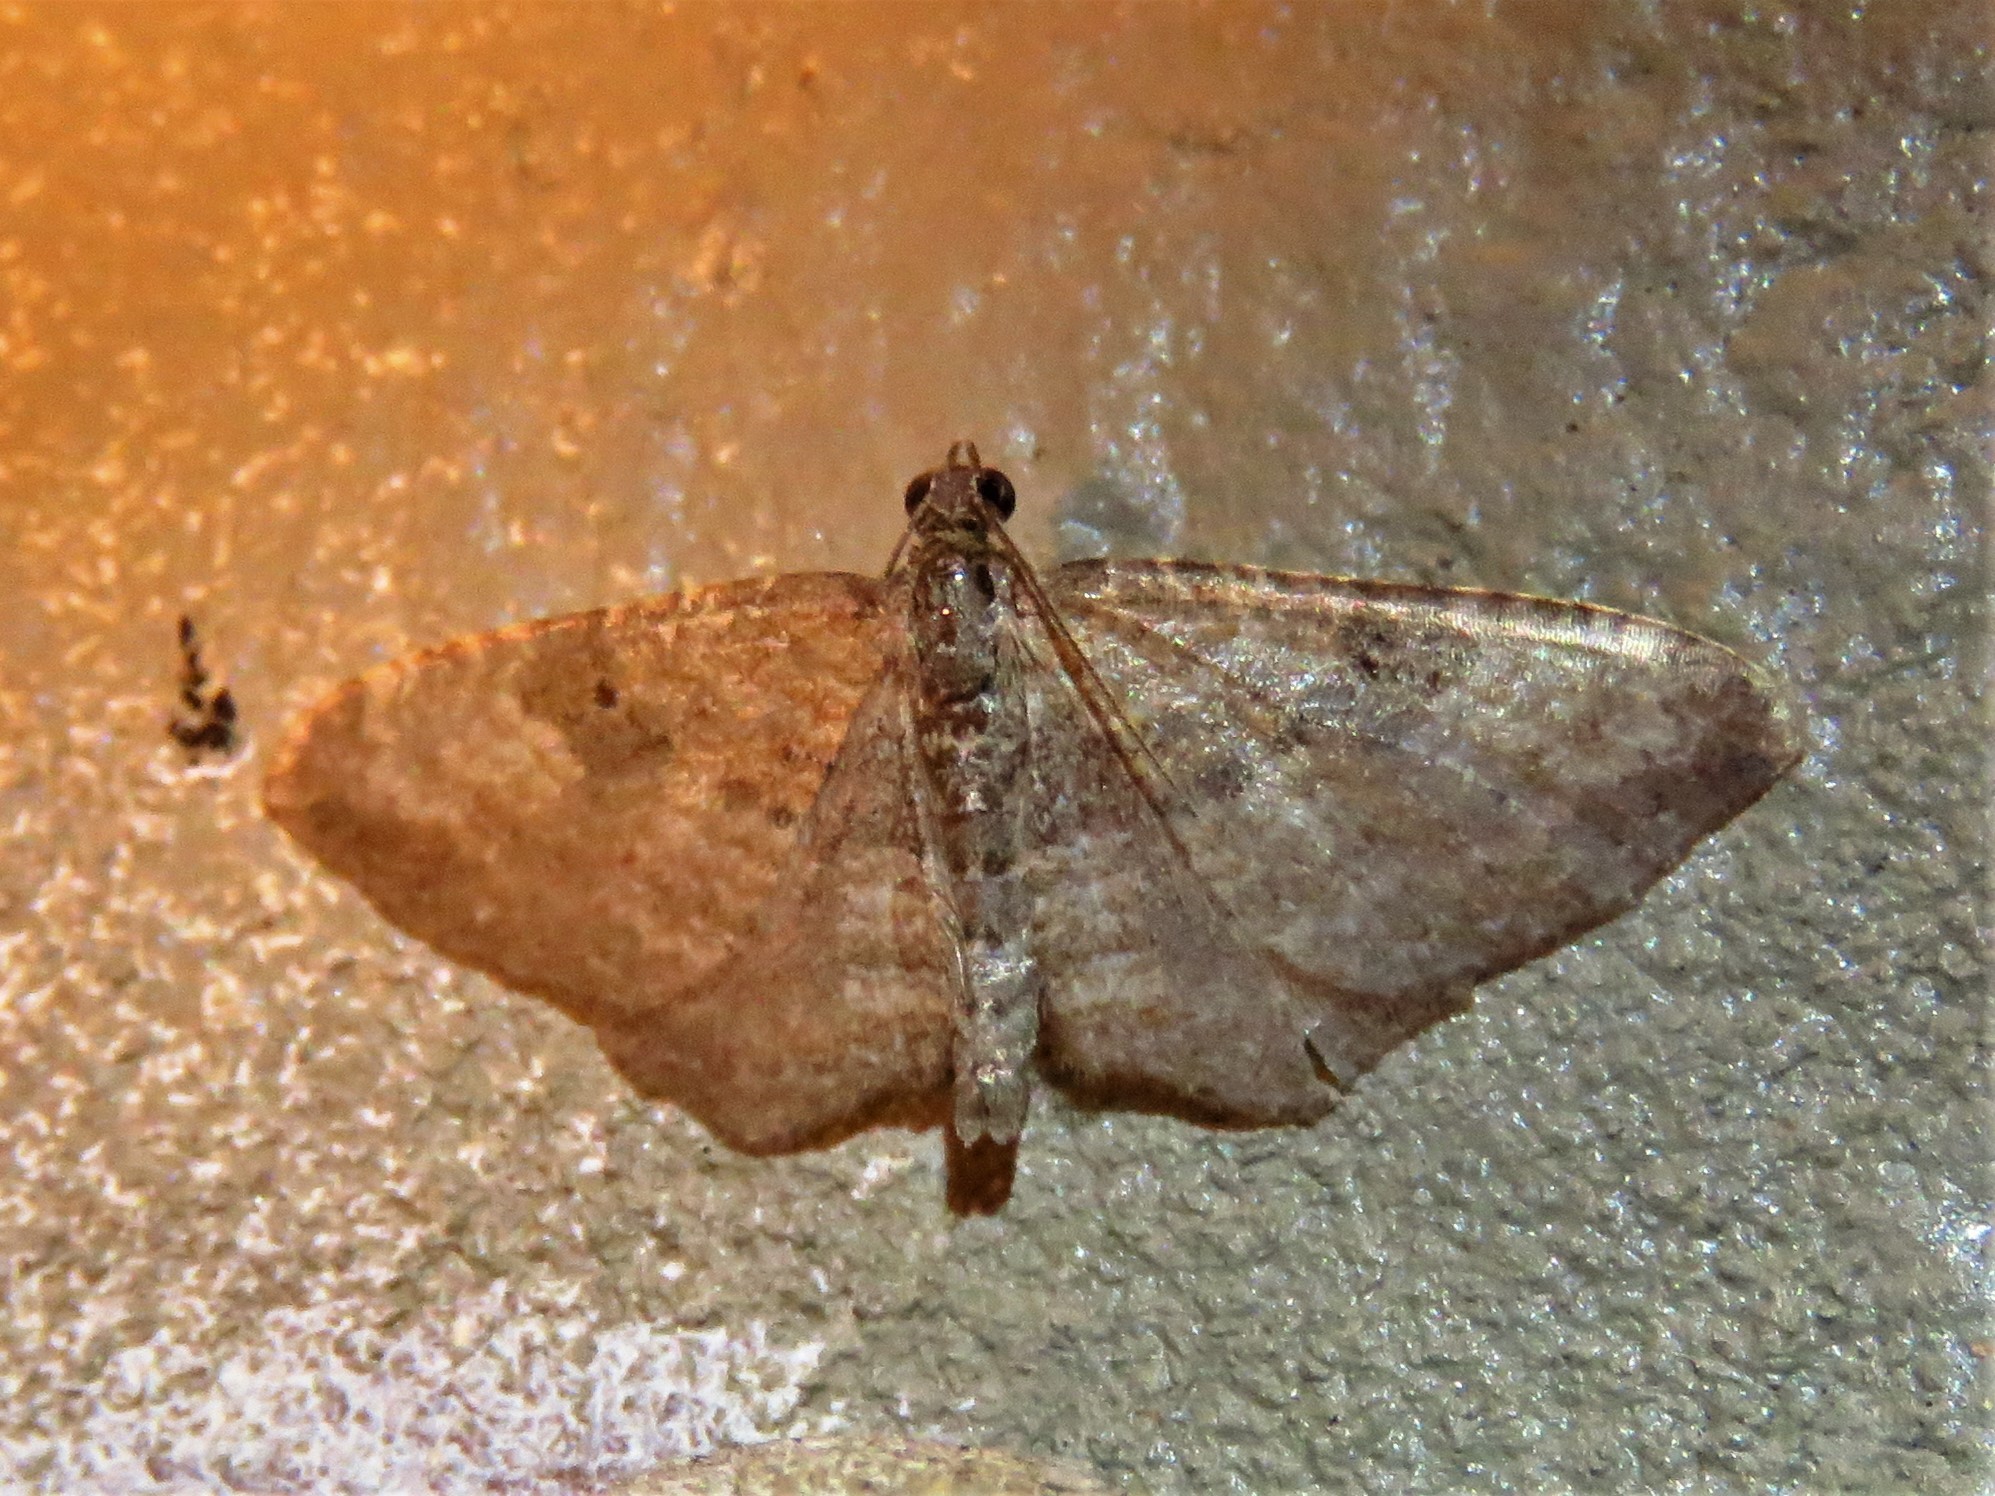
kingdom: Animalia
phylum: Arthropoda
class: Insecta
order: Lepidoptera
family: Geometridae
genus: Orthonama
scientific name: Orthonama obstipata
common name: The gem
